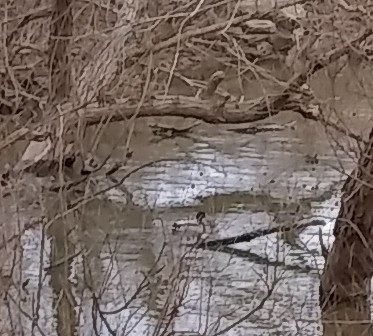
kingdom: Animalia
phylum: Chordata
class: Aves
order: Anseriformes
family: Anatidae
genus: Anas
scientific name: Anas platyrhynchos
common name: Mallard
